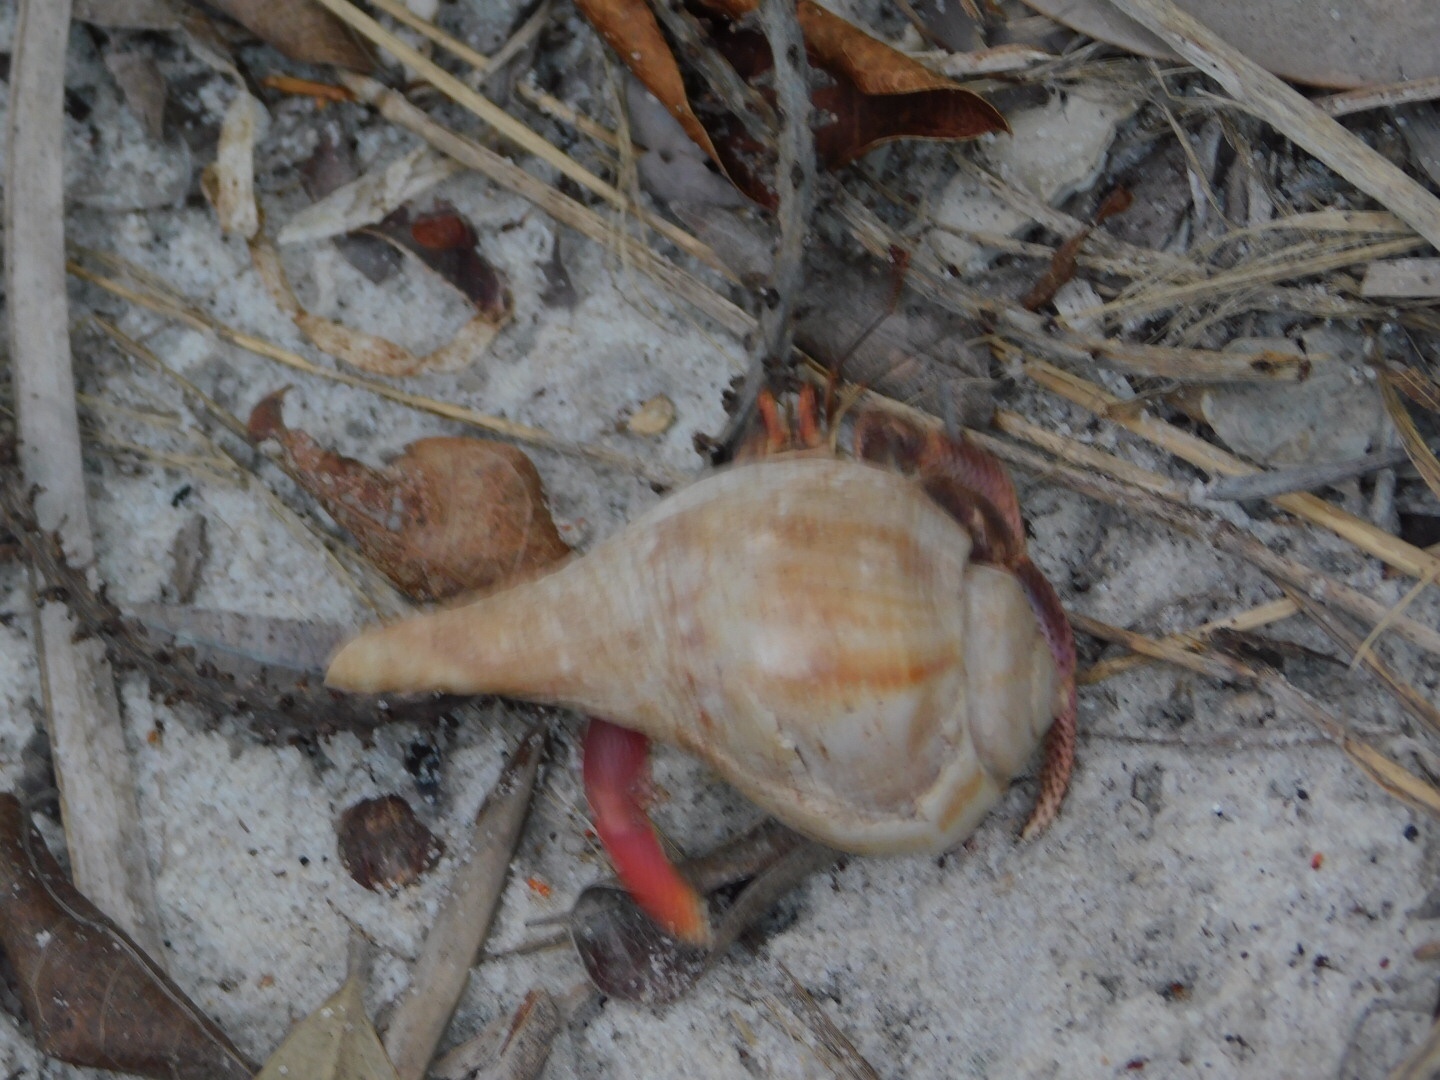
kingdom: Animalia
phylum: Arthropoda
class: Malacostraca
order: Decapoda
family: Coenobitidae
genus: Coenobita
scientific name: Coenobita clypeatus
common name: Caribbean hermit crab
